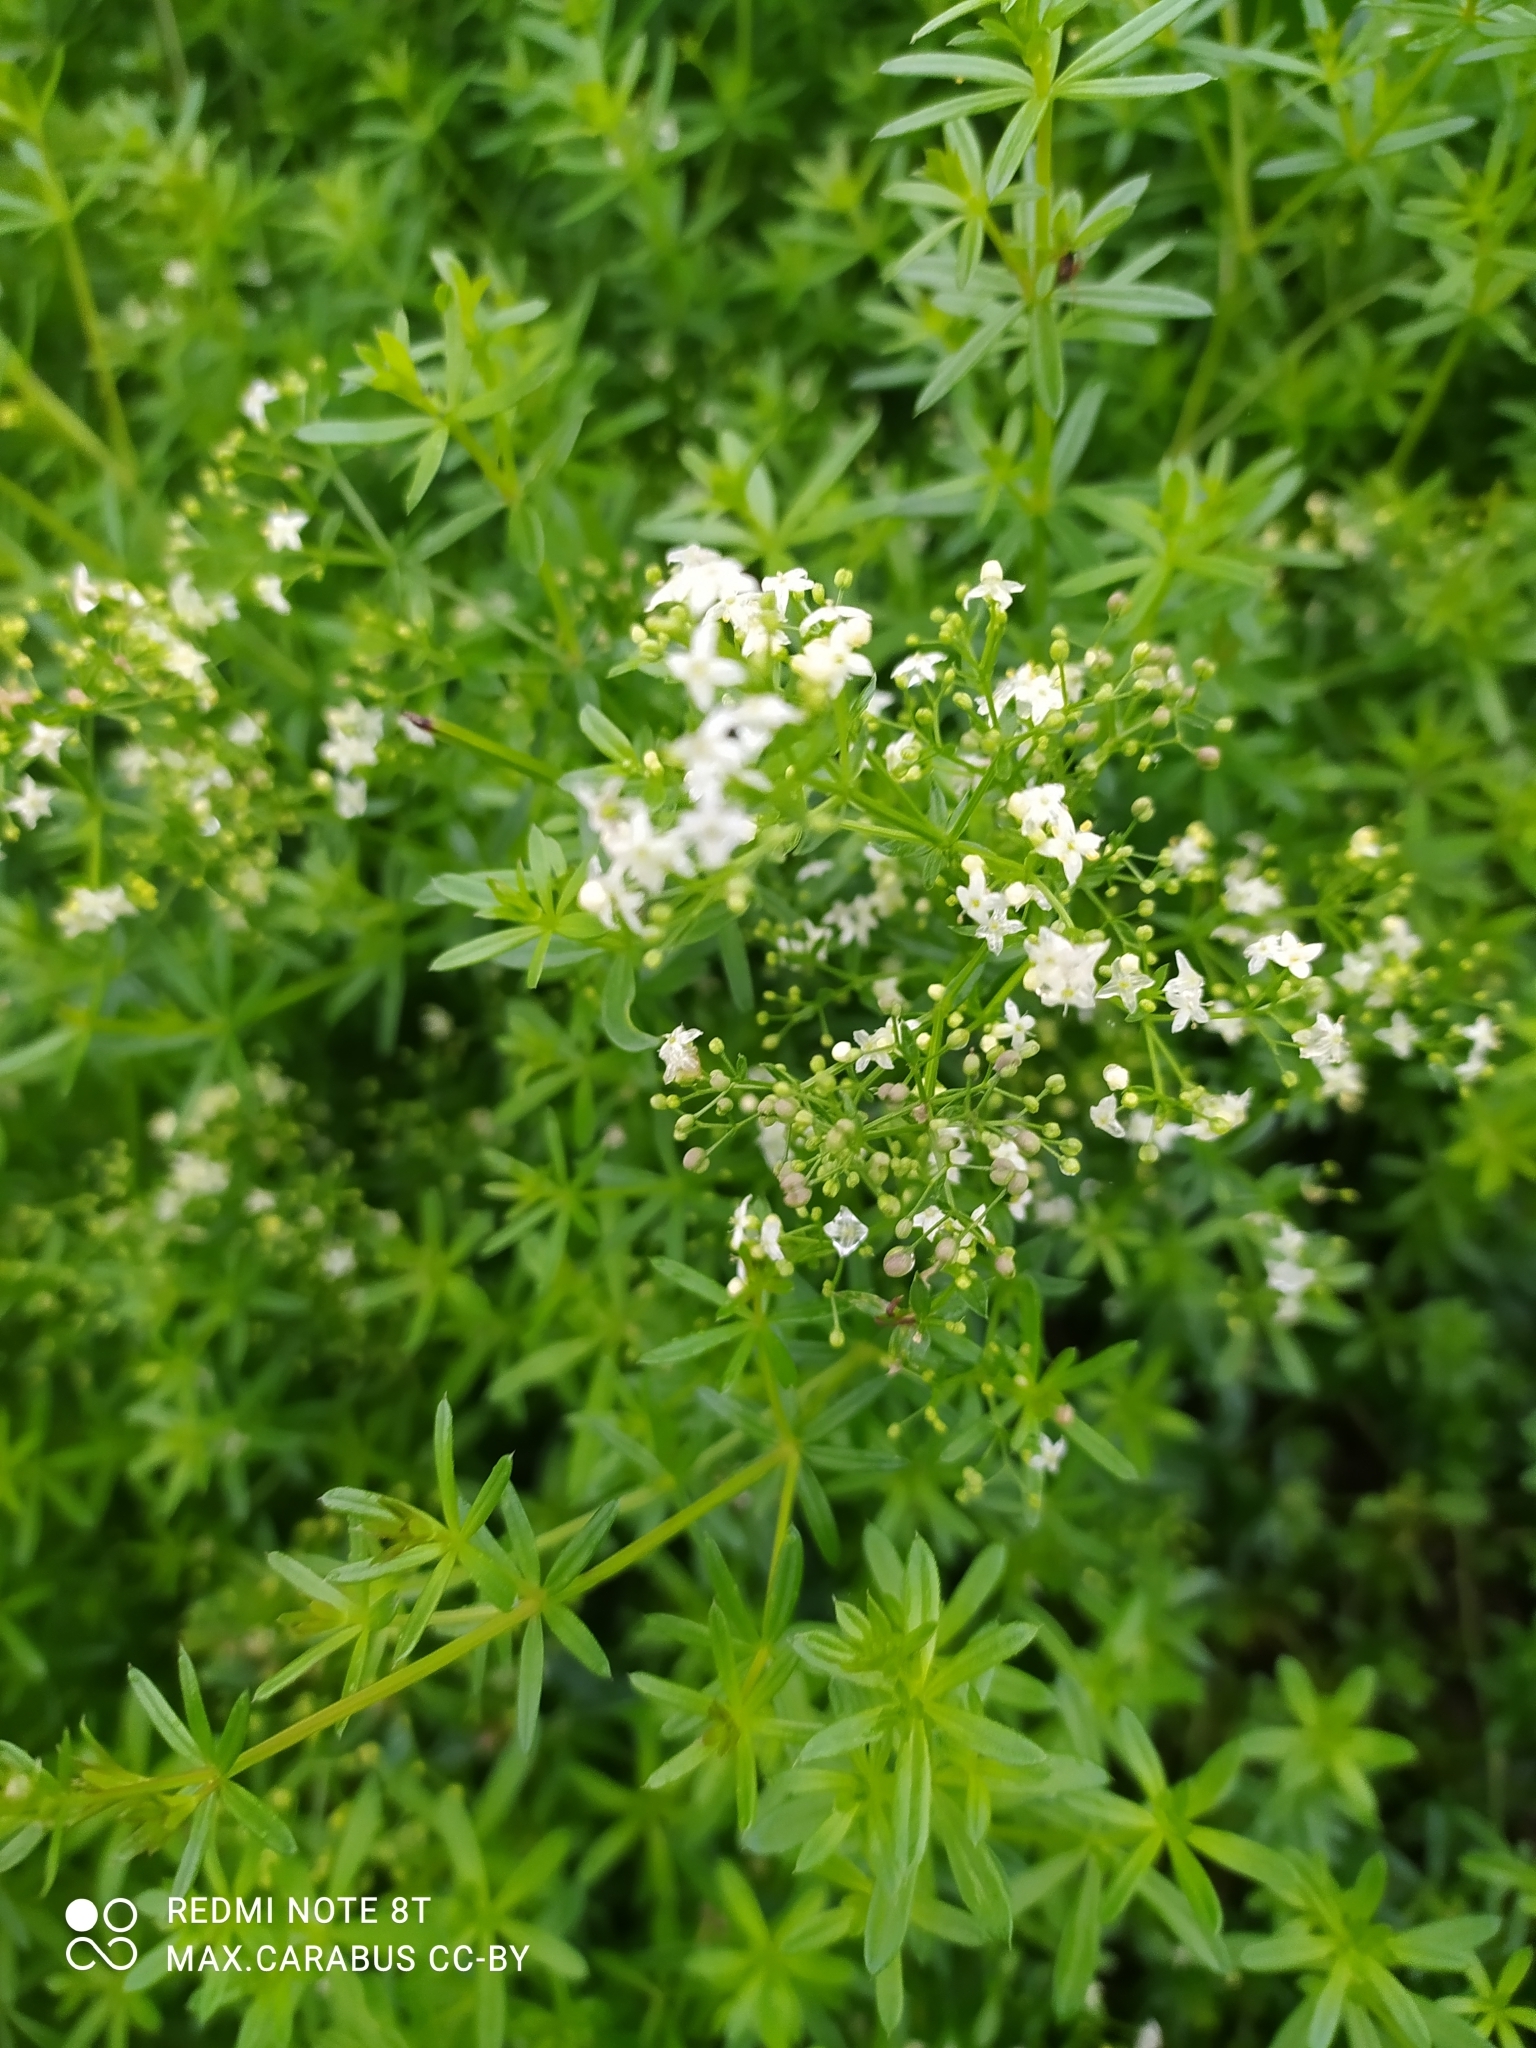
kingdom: Plantae
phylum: Tracheophyta
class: Magnoliopsida
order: Gentianales
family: Rubiaceae
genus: Galium
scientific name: Galium mollugo
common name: Hedge bedstraw
